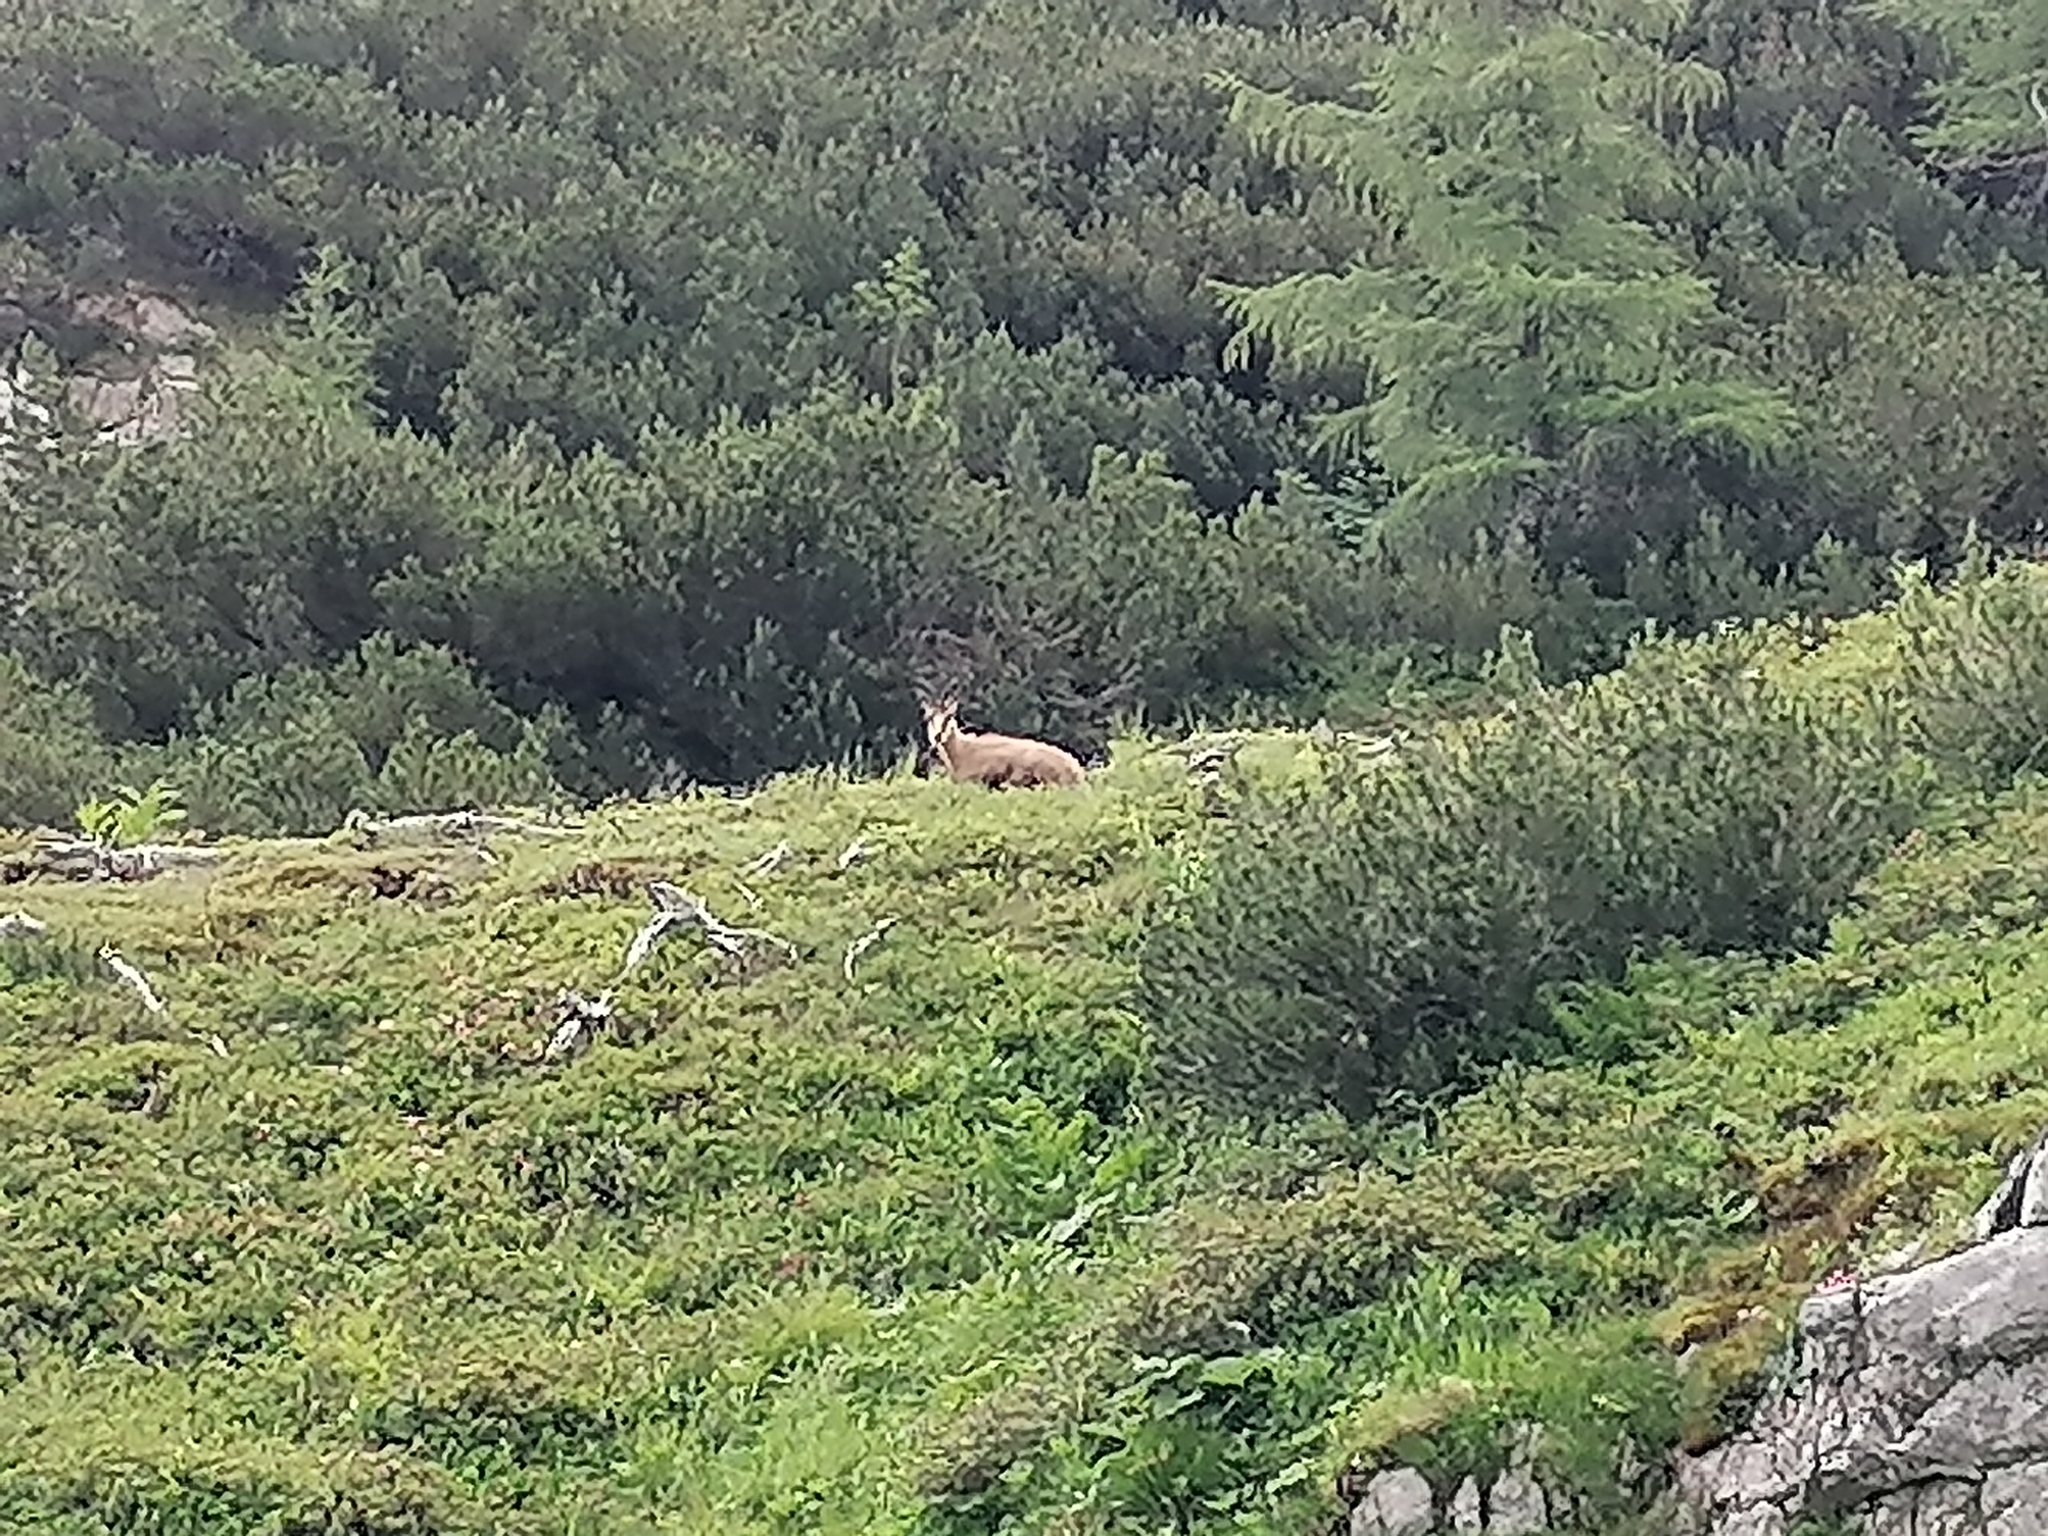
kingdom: Animalia
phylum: Chordata
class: Mammalia
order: Artiodactyla
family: Bovidae
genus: Rupicapra
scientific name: Rupicapra rupicapra
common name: Chamois
